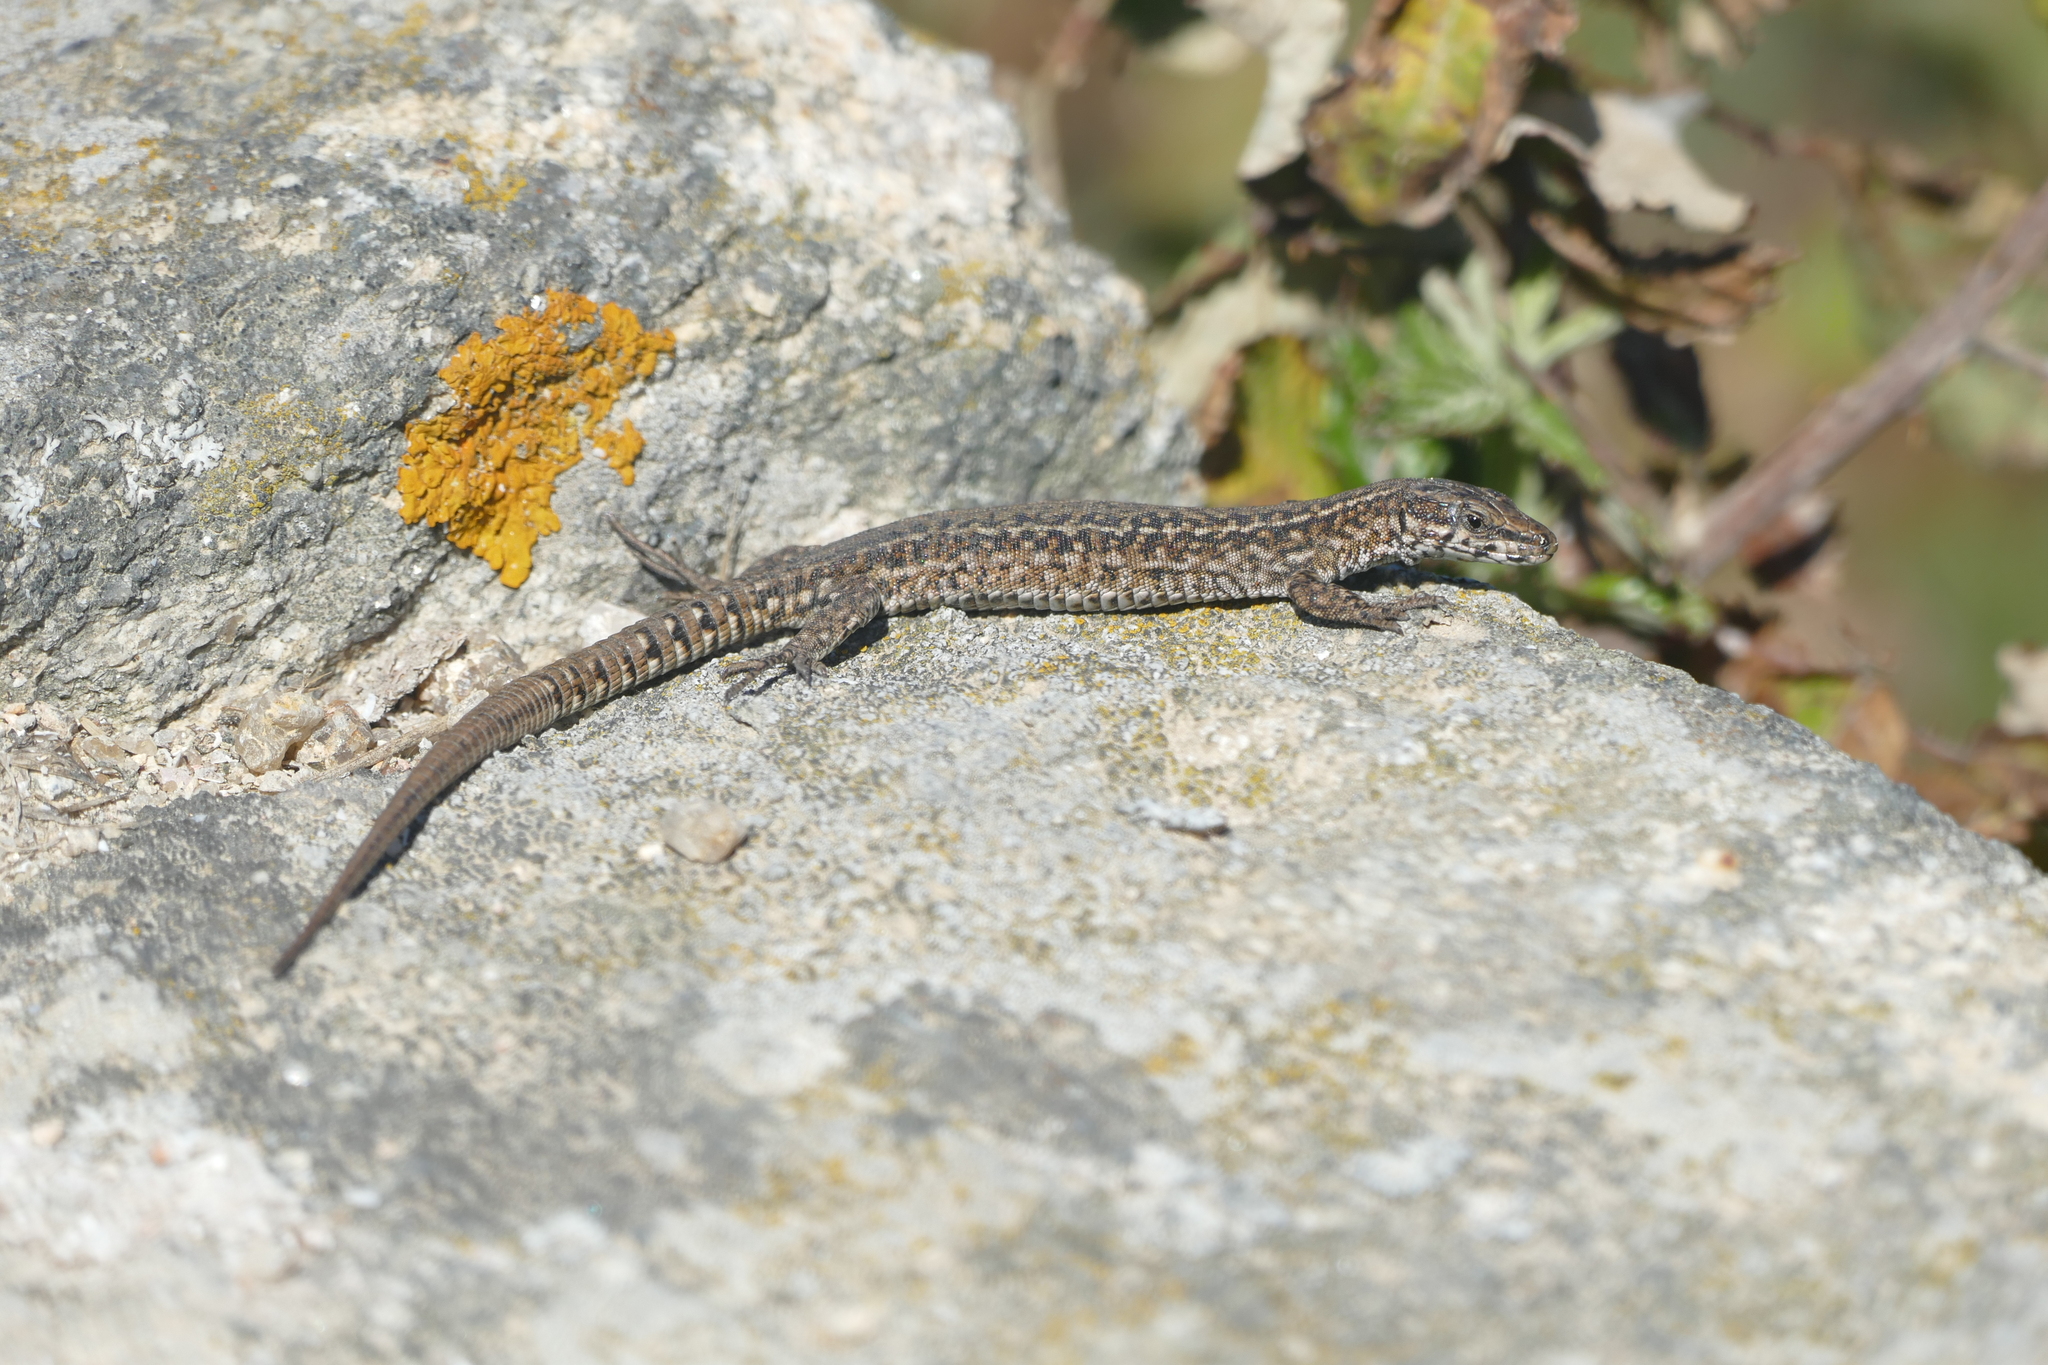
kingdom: Animalia
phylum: Chordata
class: Squamata
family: Lacertidae
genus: Podarcis
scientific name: Podarcis
